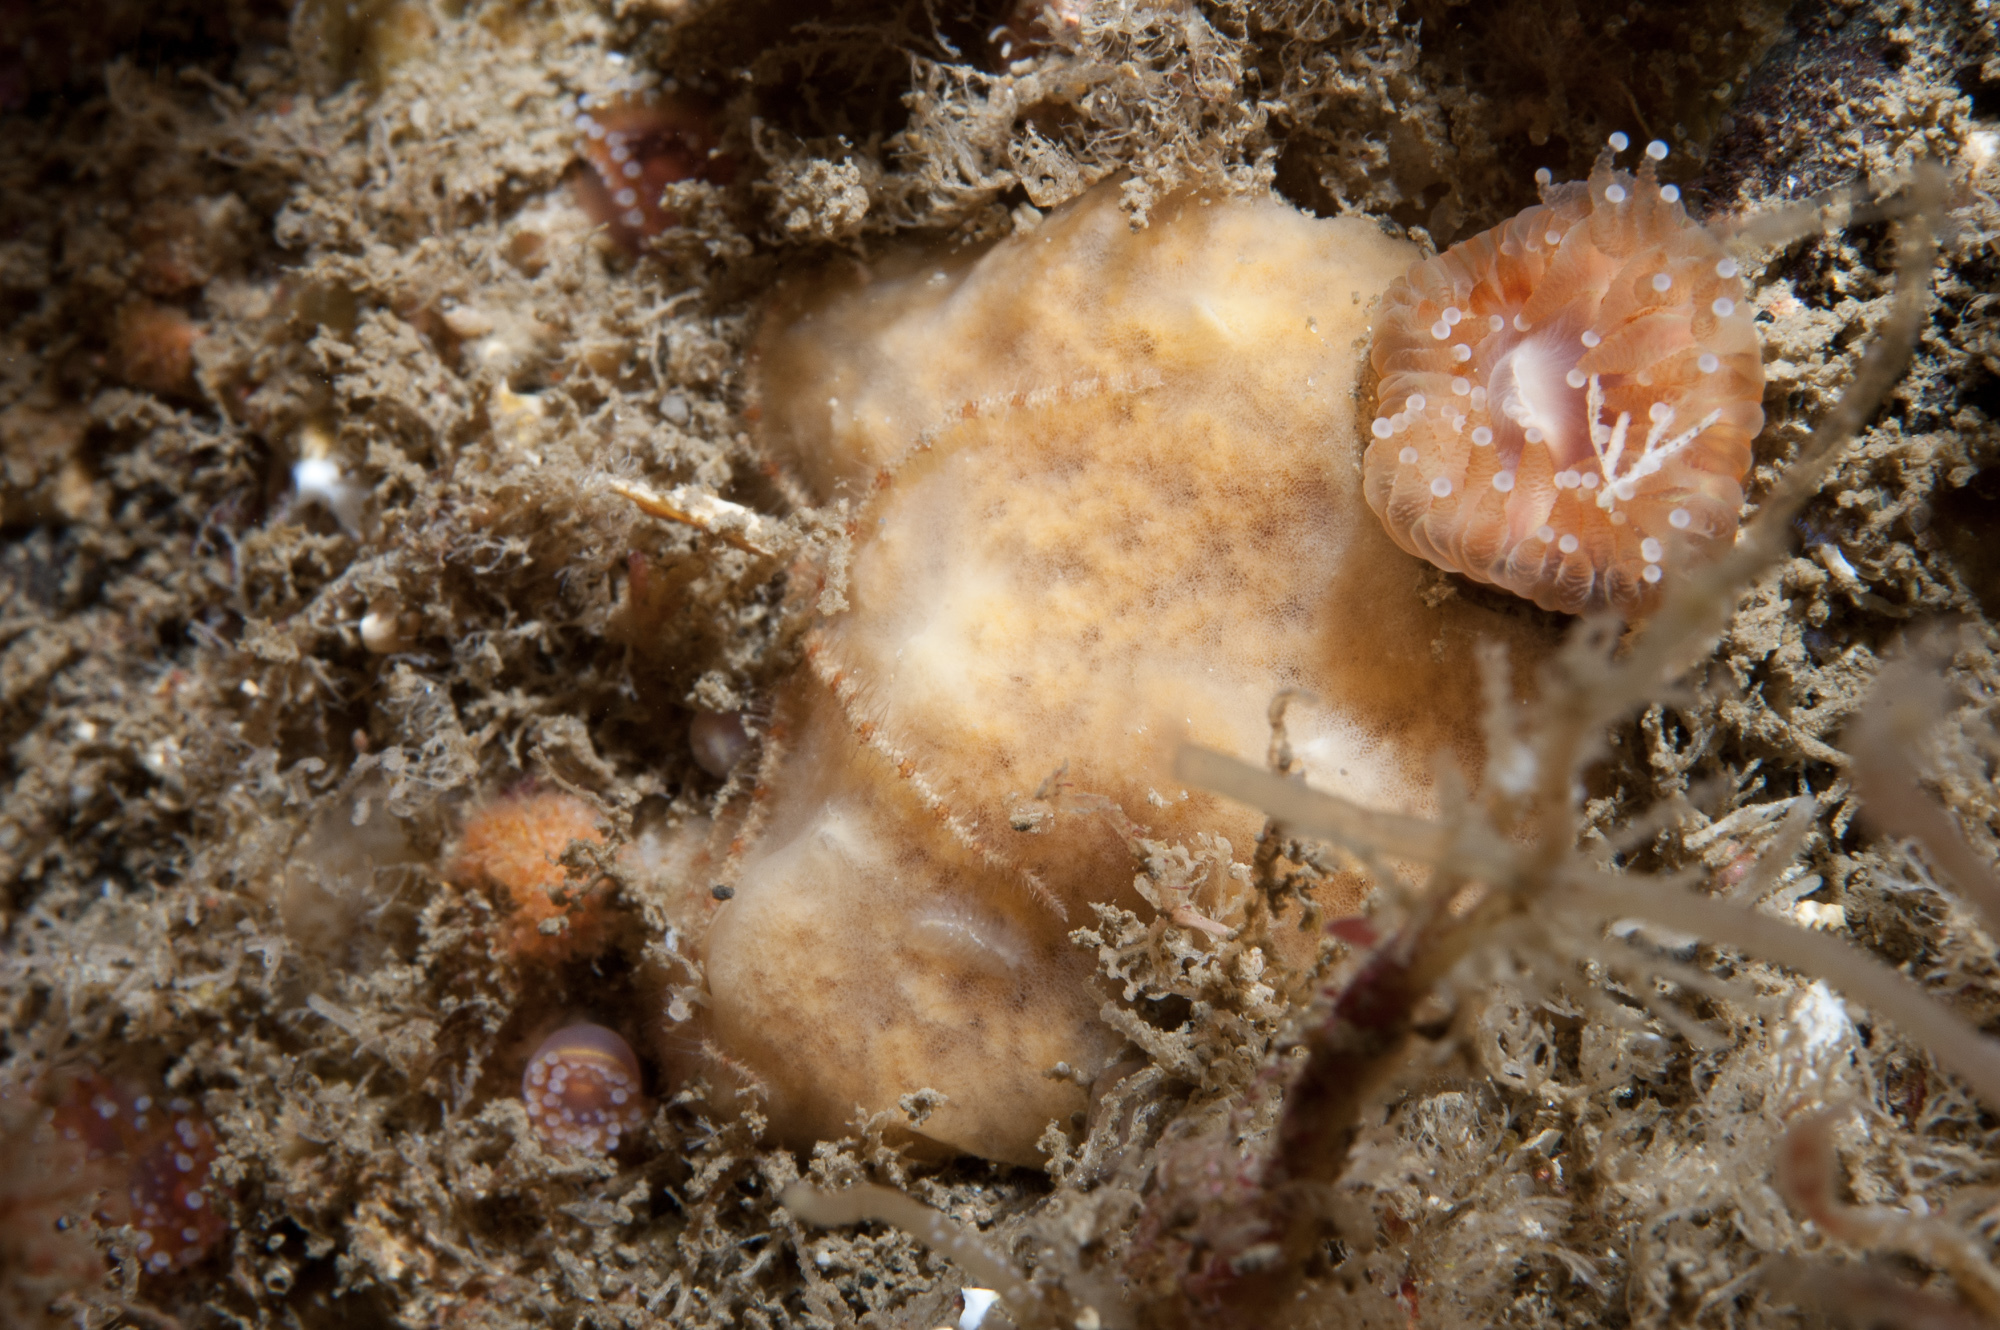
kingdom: Animalia
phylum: Porifera
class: Demospongiae
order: Poecilosclerida
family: Myxillidae
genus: Myxilla
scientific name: Myxilla fimbriata
